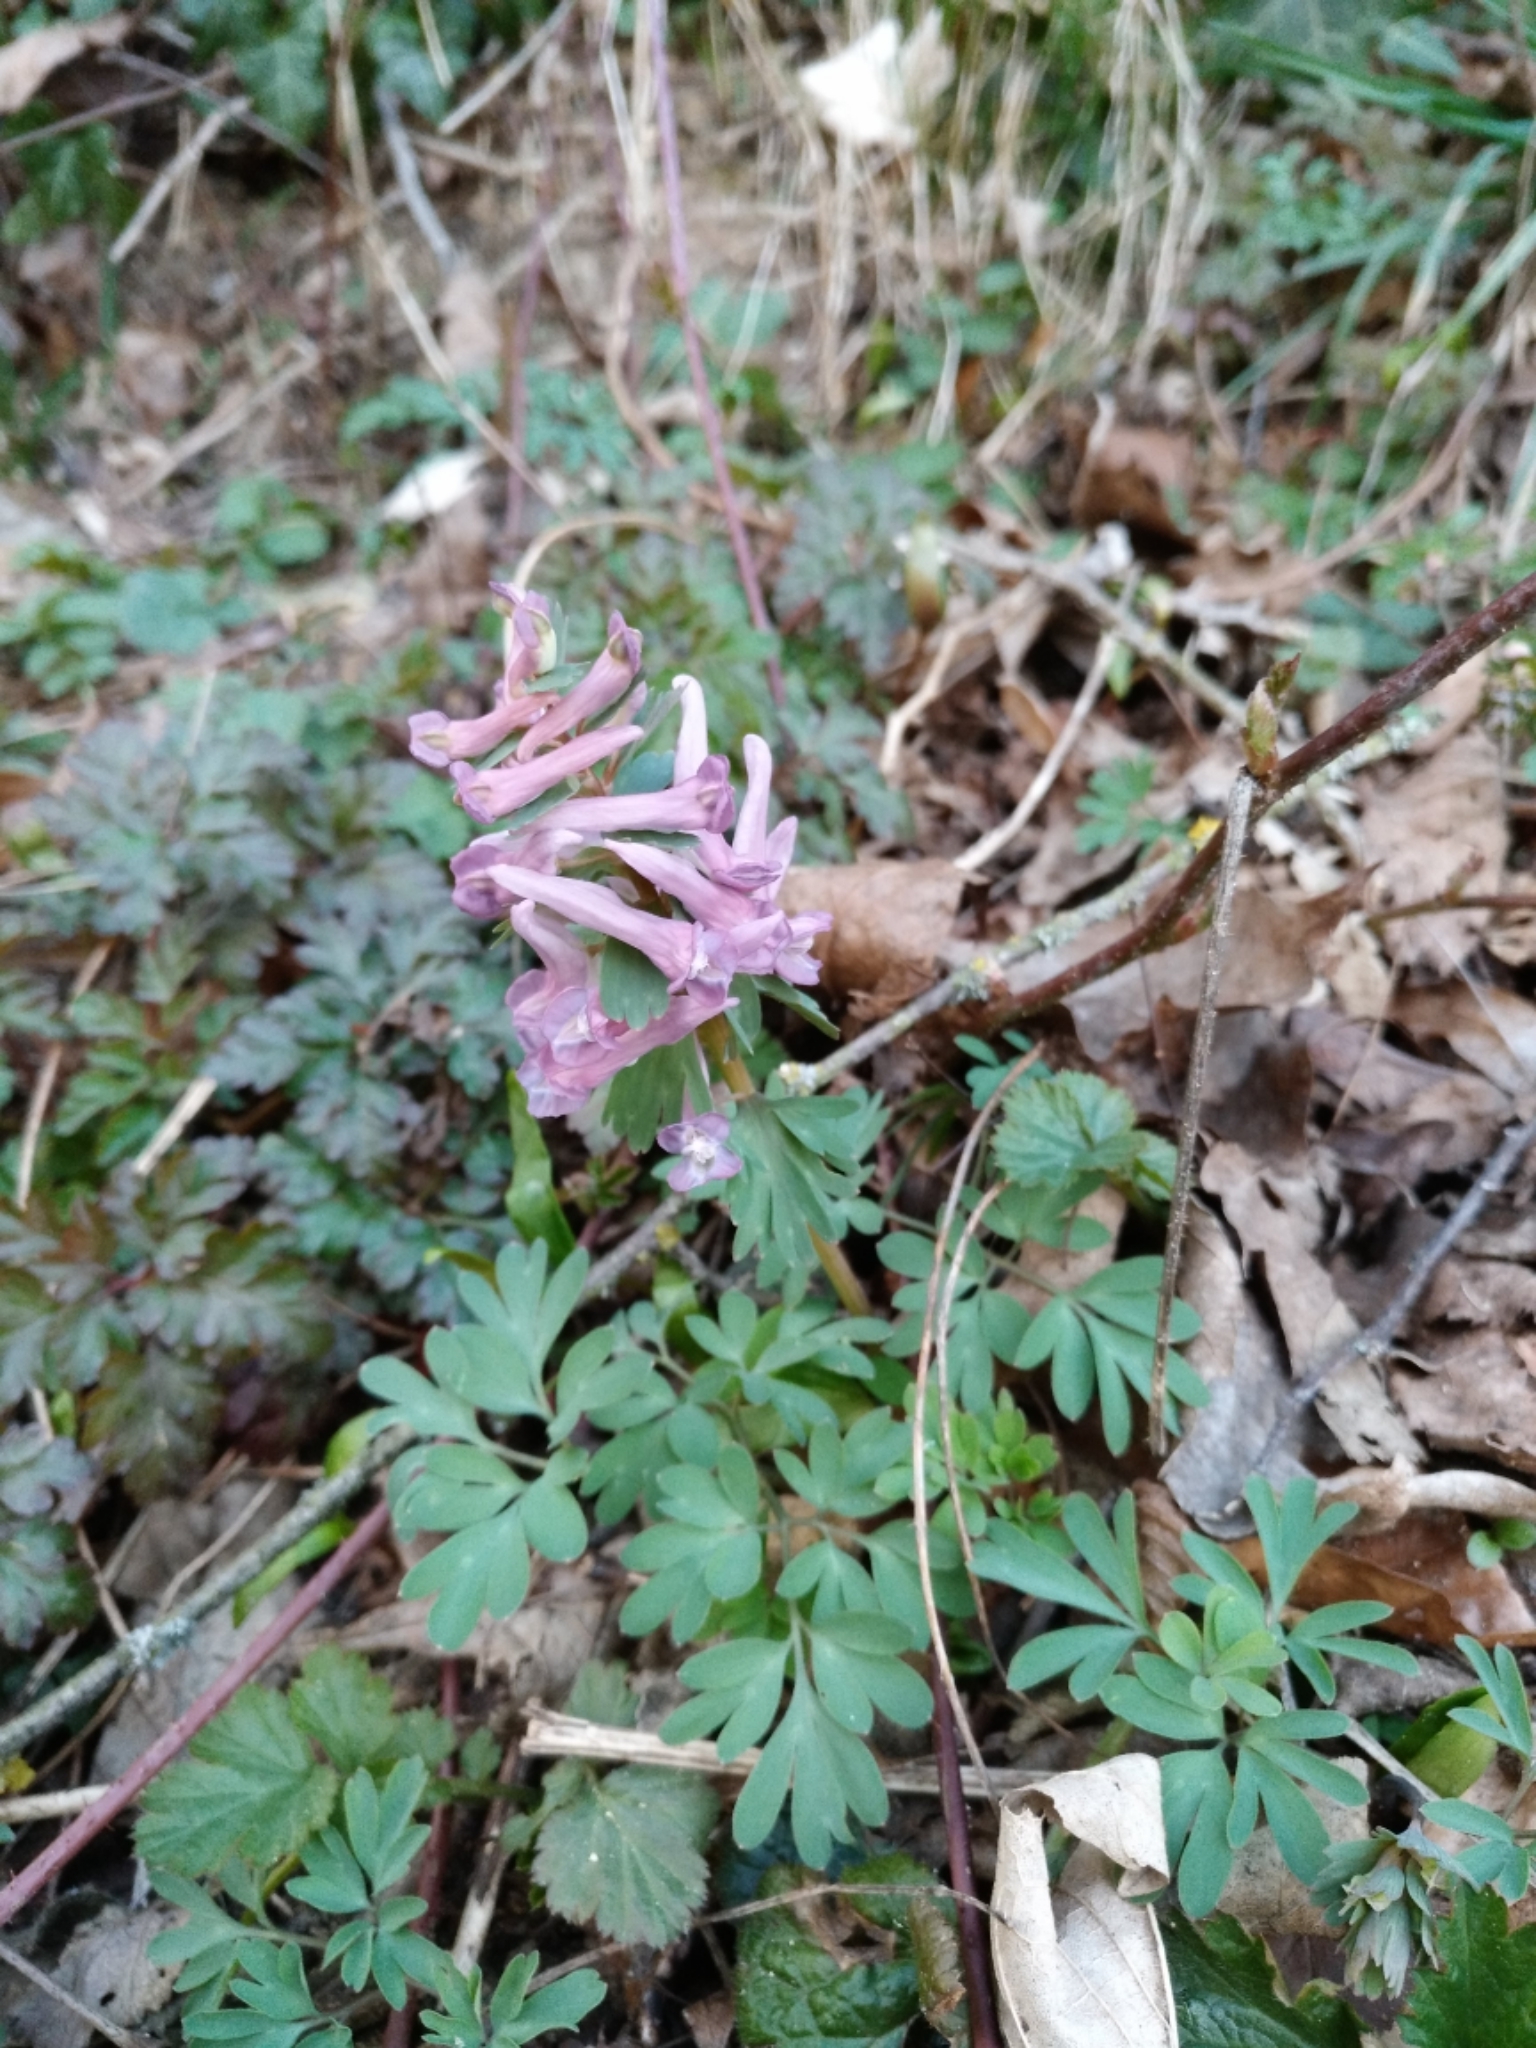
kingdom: Plantae
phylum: Tracheophyta
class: Magnoliopsida
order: Ranunculales
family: Papaveraceae
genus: Corydalis
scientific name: Corydalis solida
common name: Bird-in-a-bush
